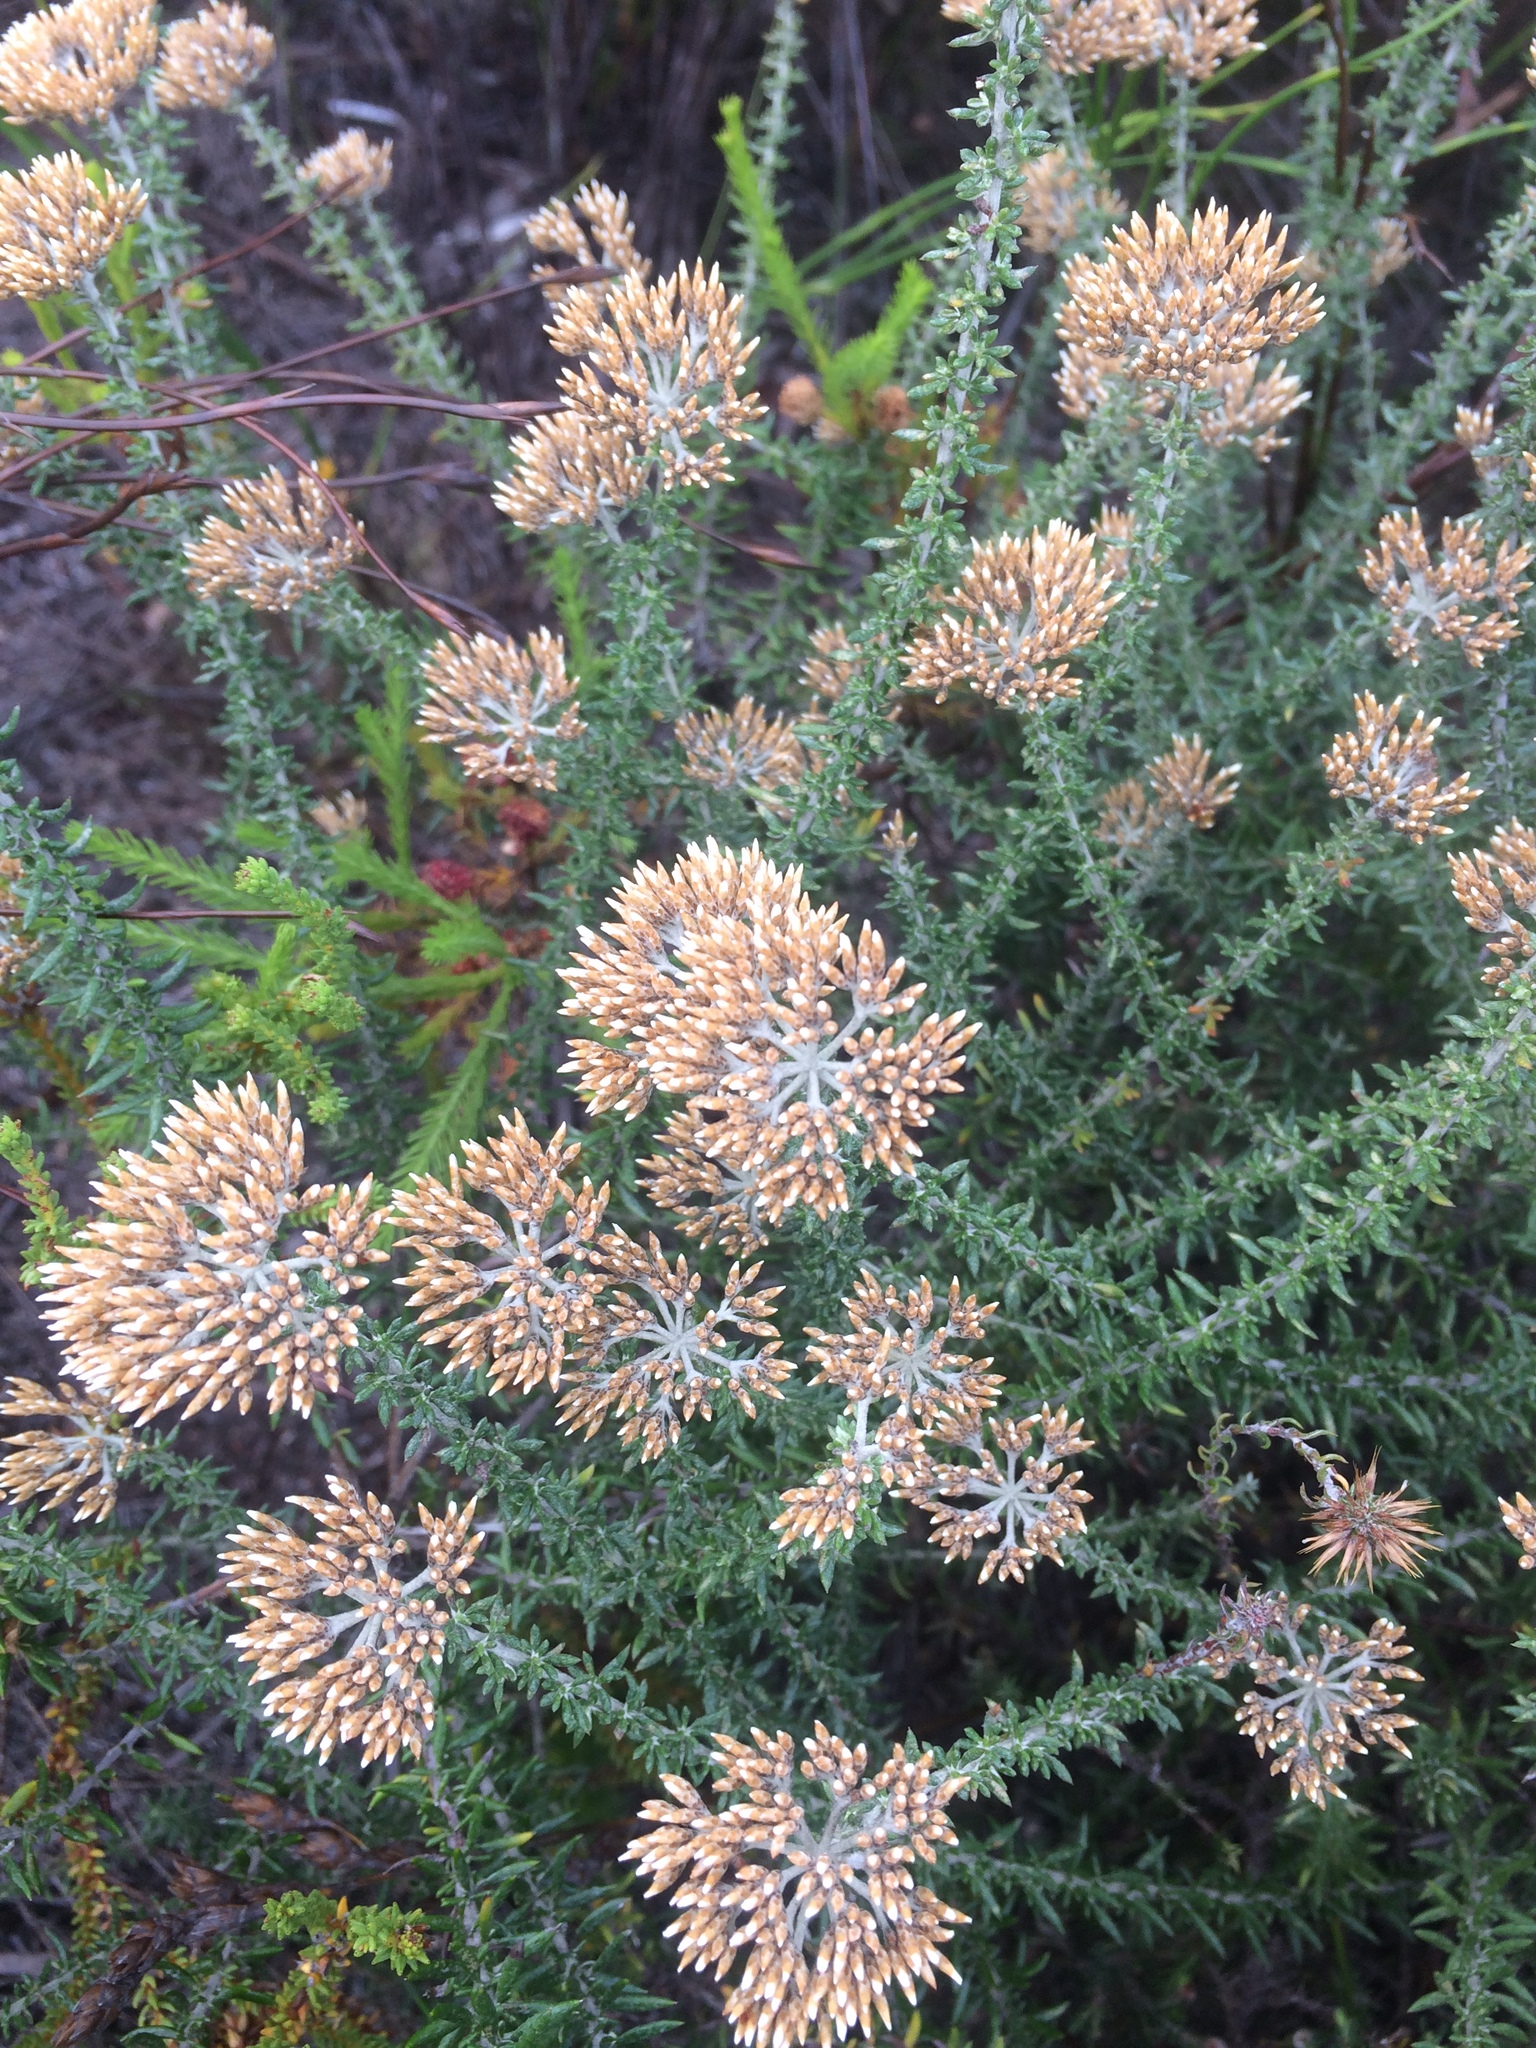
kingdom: Plantae
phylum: Tracheophyta
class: Magnoliopsida
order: Asterales
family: Asteraceae
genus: Metalasia
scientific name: Metalasia densa
